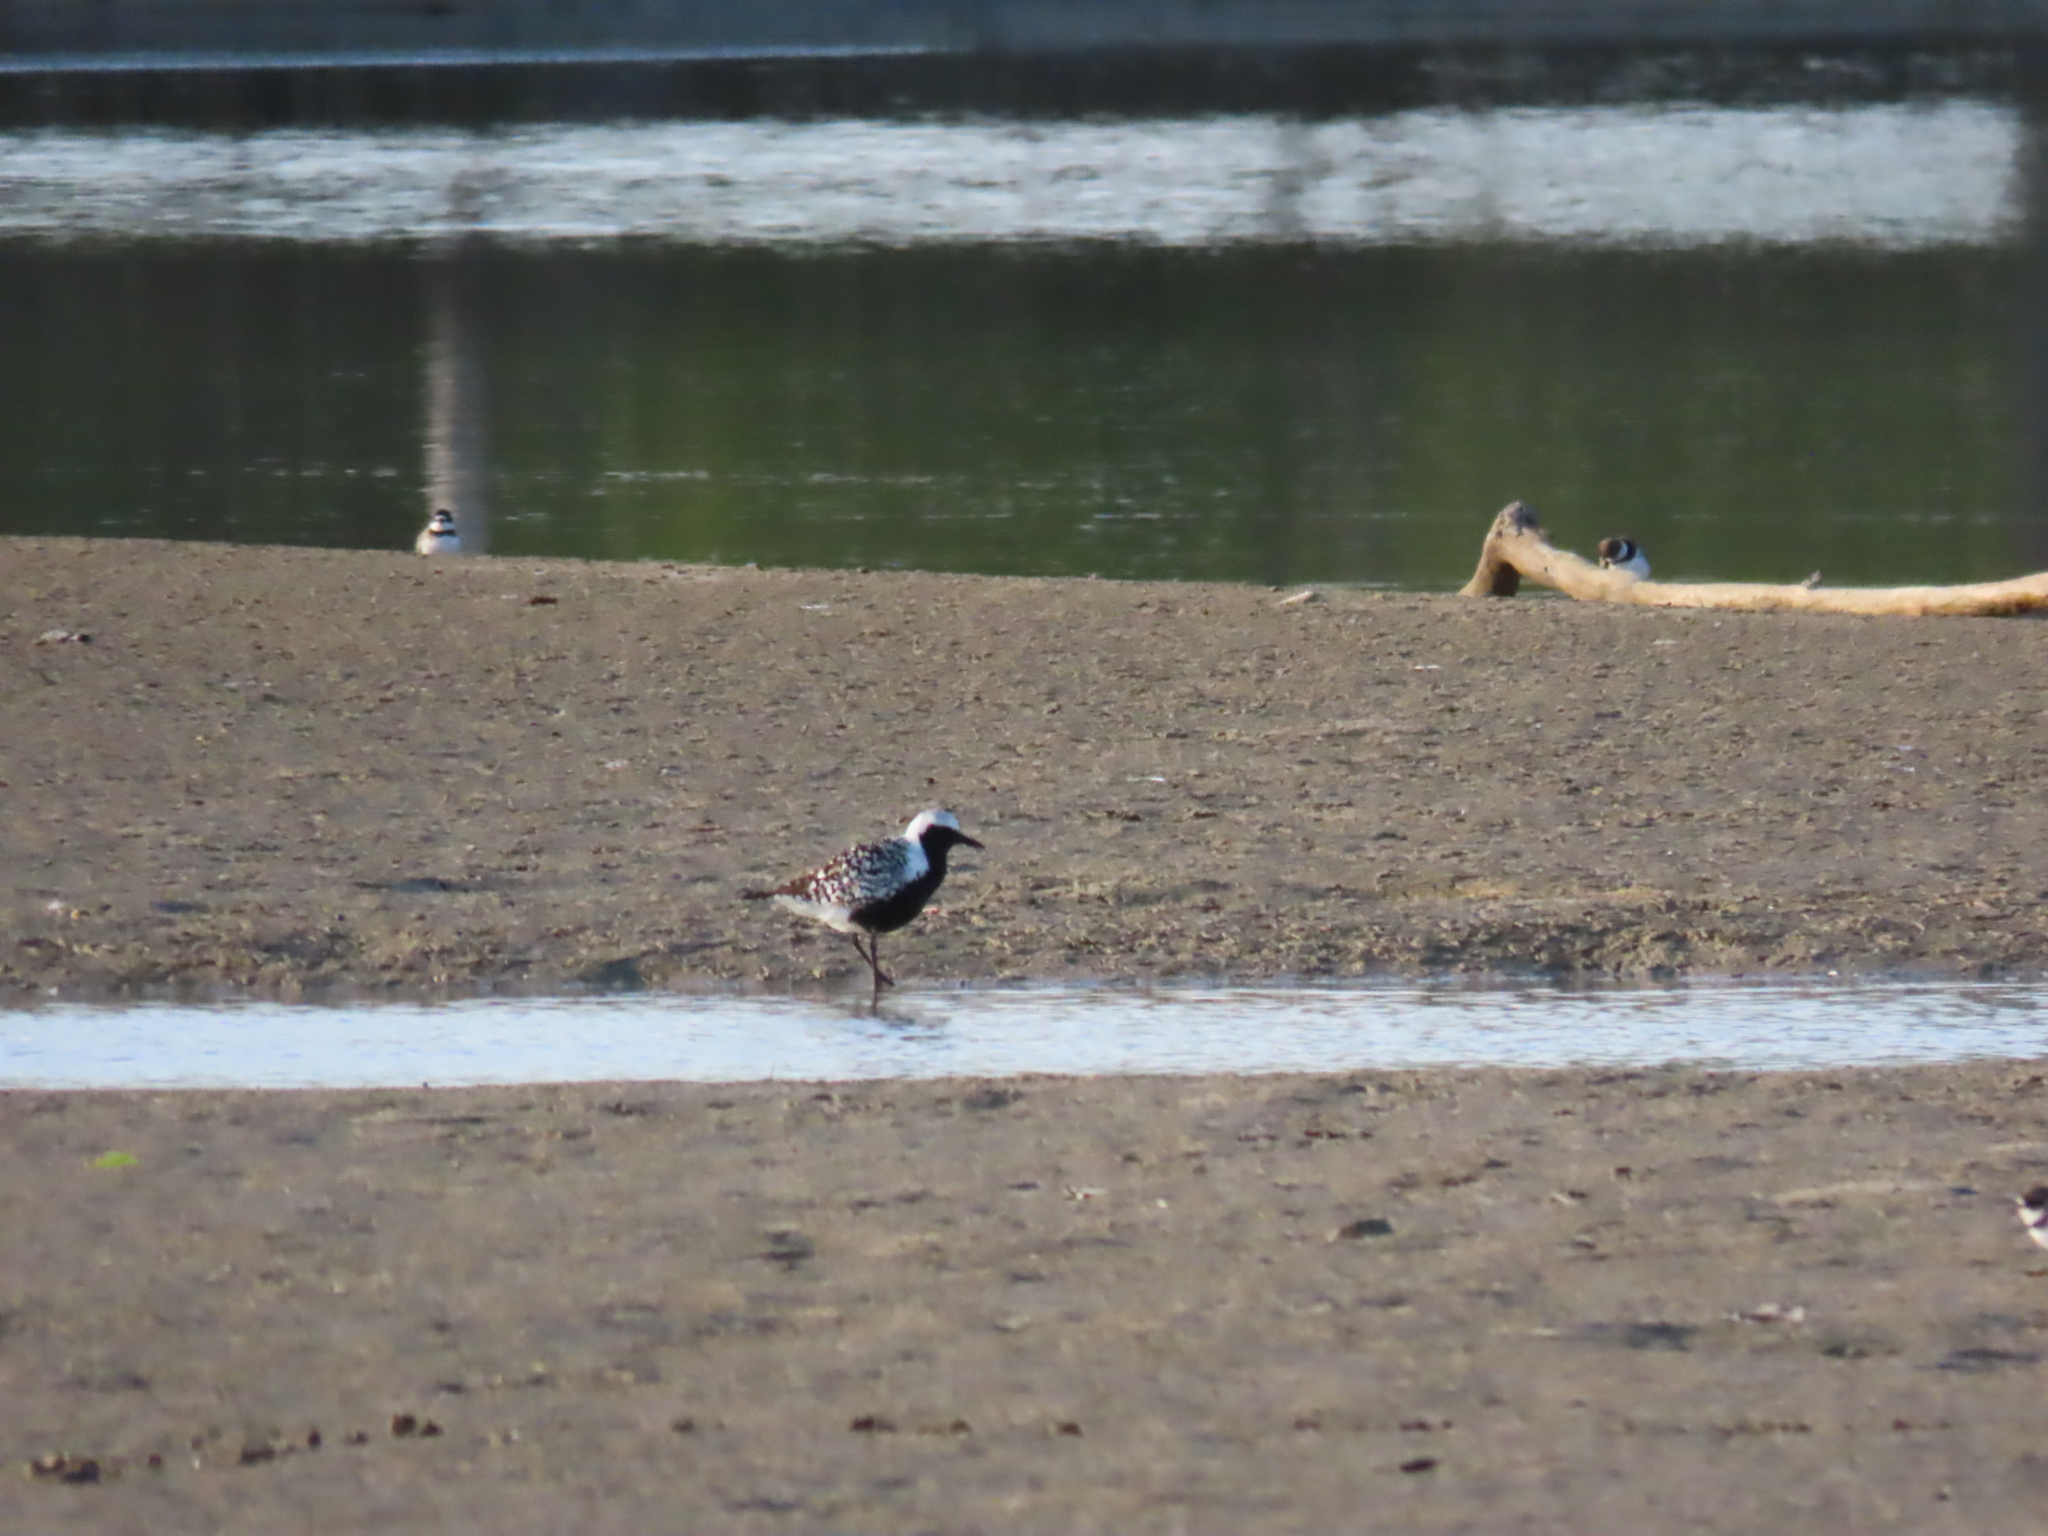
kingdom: Animalia
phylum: Chordata
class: Aves
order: Charadriiformes
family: Charadriidae
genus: Pluvialis
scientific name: Pluvialis squatarola
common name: Grey plover
